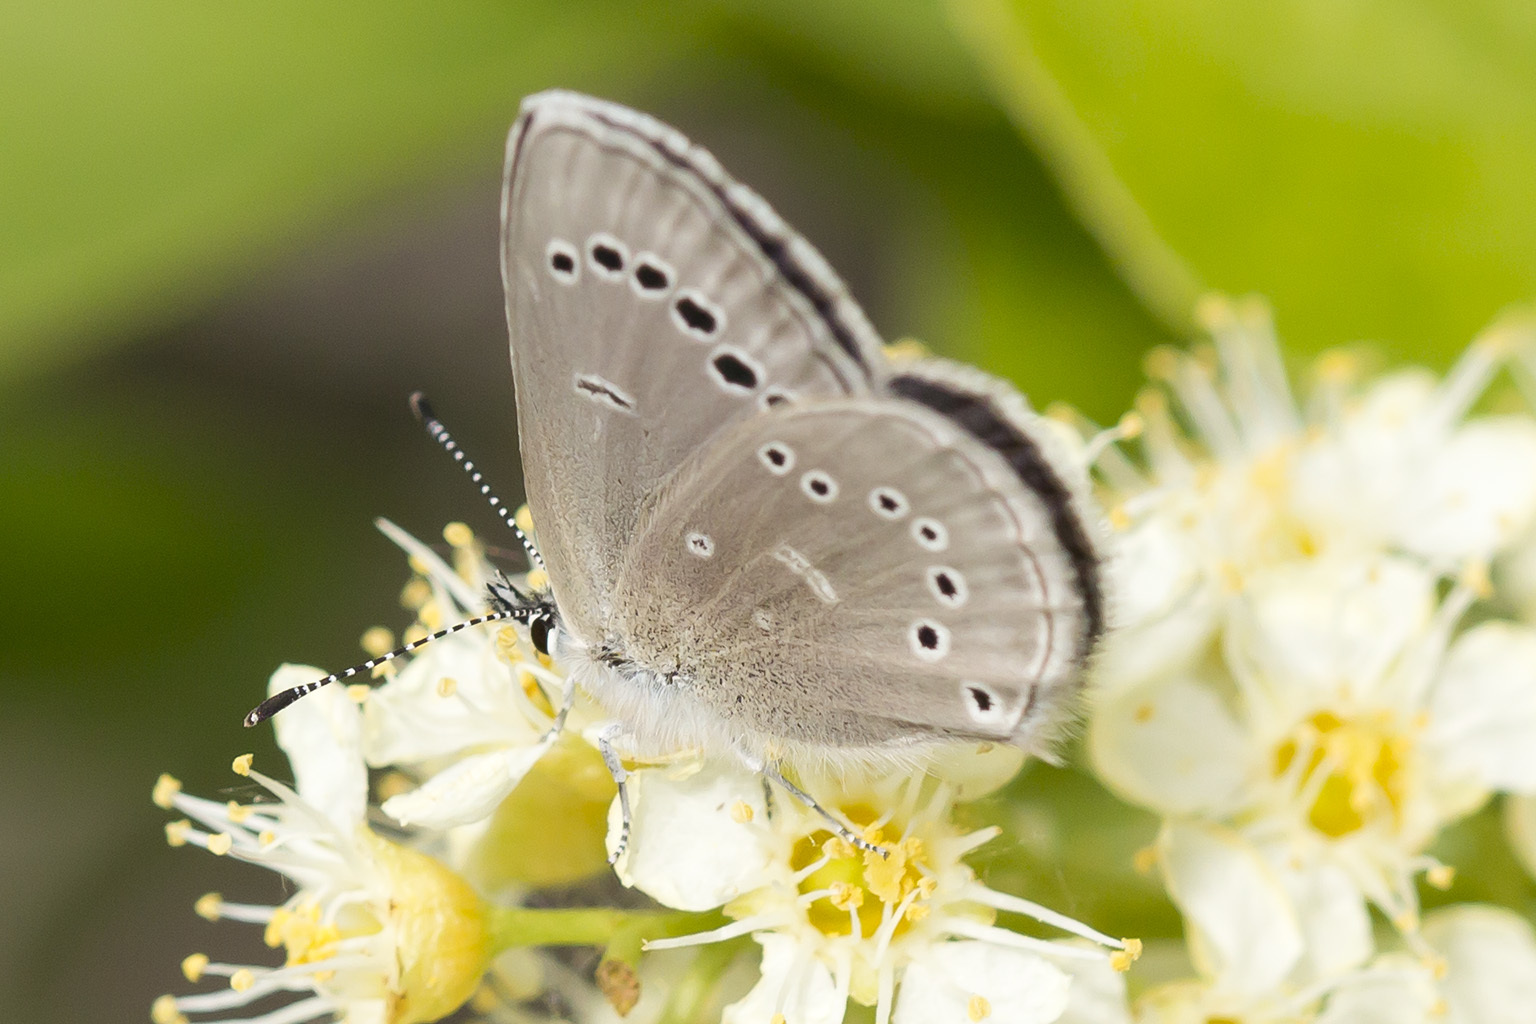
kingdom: Animalia
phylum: Arthropoda
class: Insecta
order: Lepidoptera
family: Lycaenidae
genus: Glaucopsyche
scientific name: Glaucopsyche lygdamus
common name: Silvery blue
